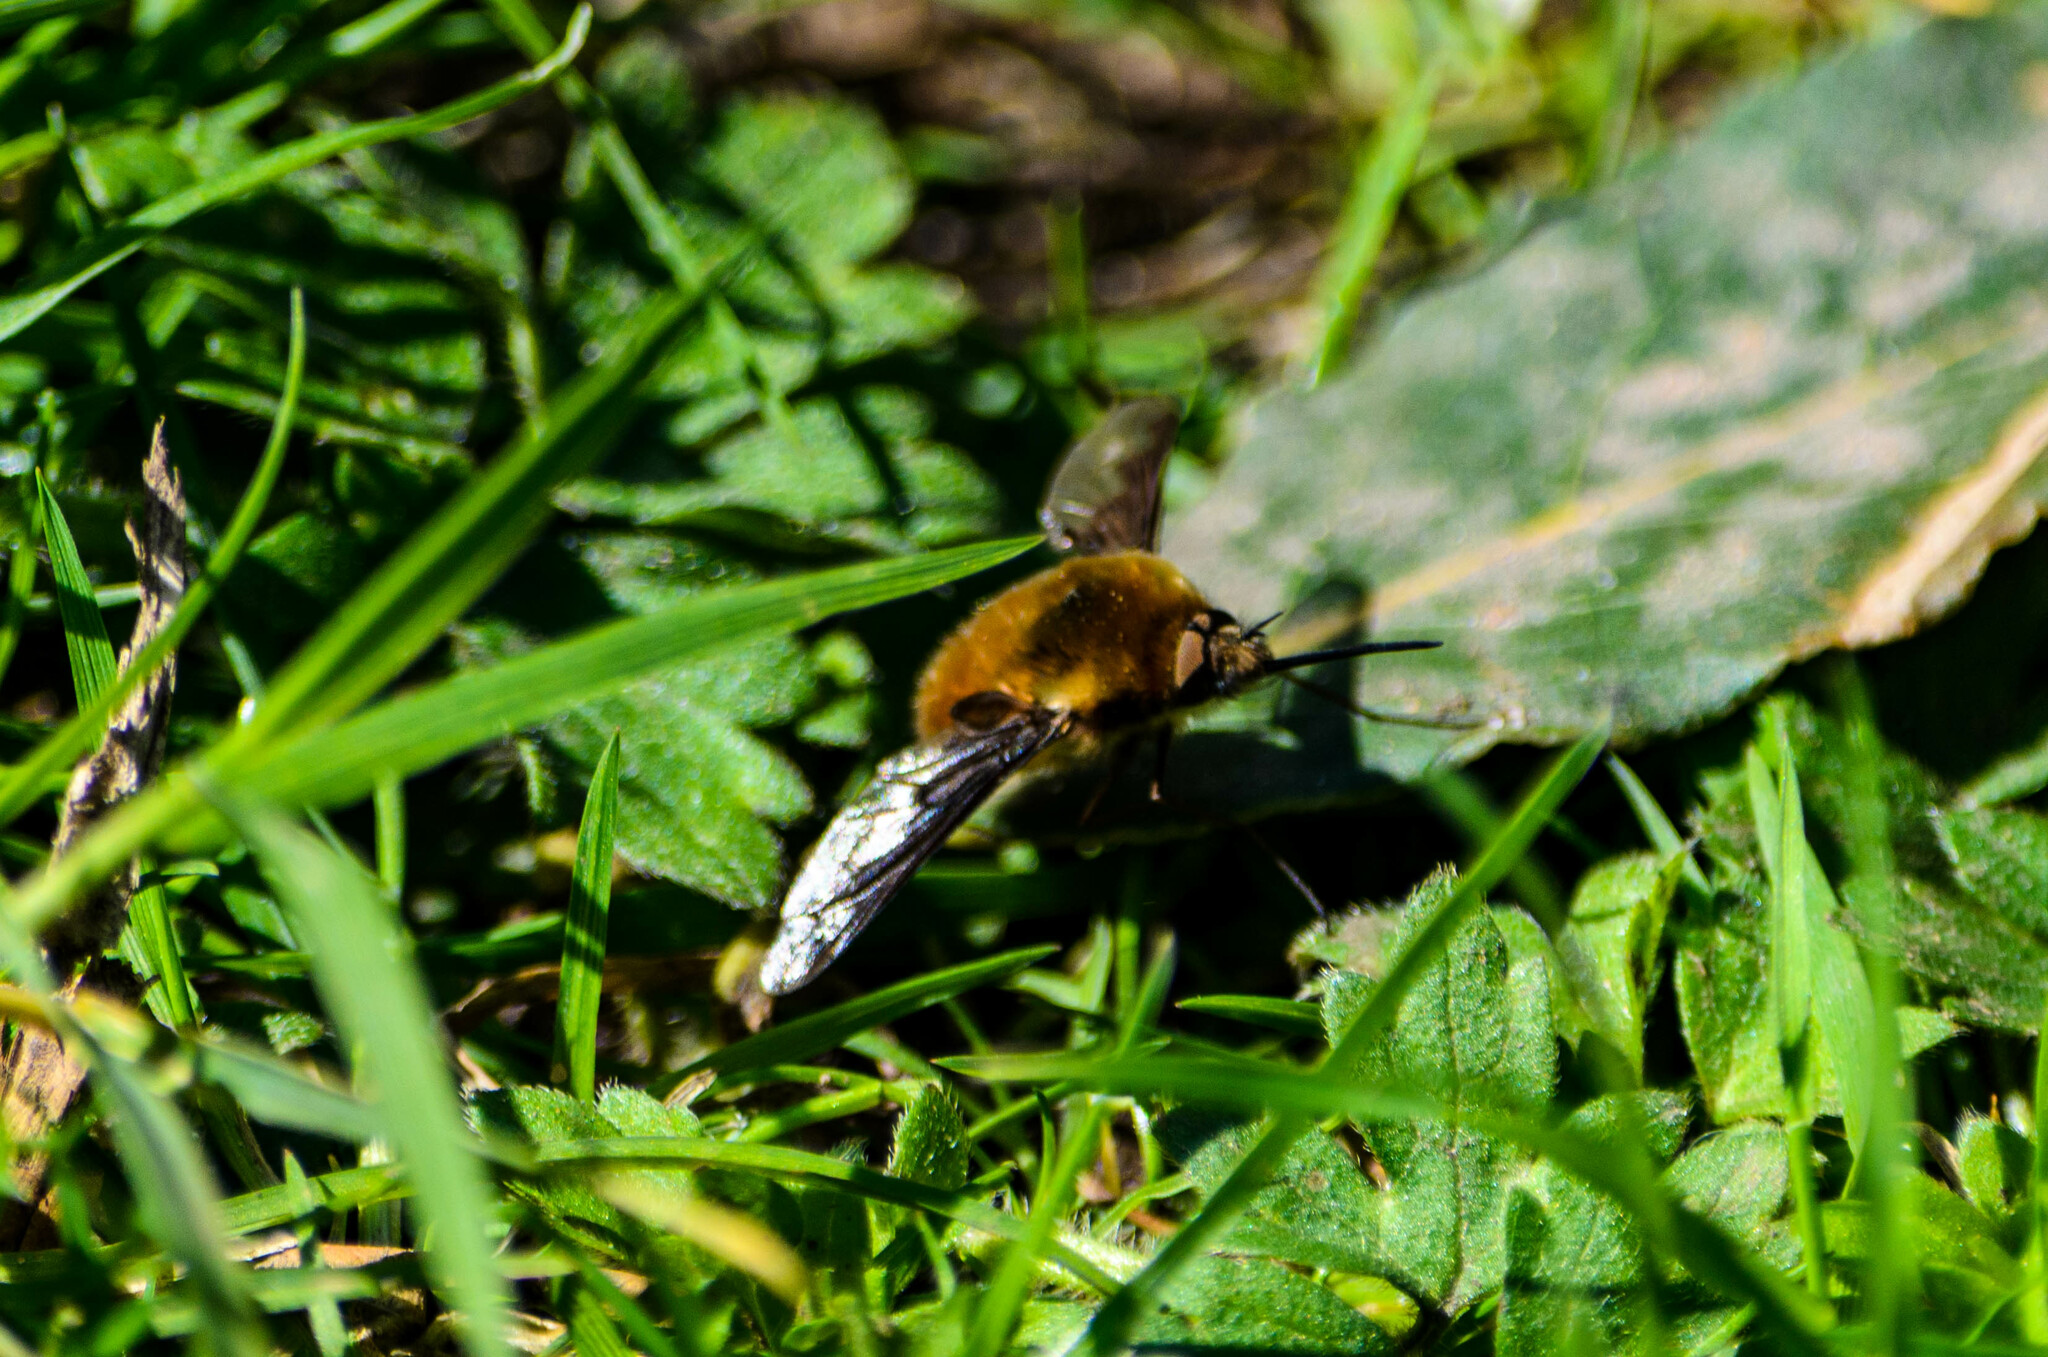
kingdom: Animalia
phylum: Arthropoda
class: Insecta
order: Diptera
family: Bombyliidae
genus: Bombylius
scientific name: Bombylius major
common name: Bee fly
